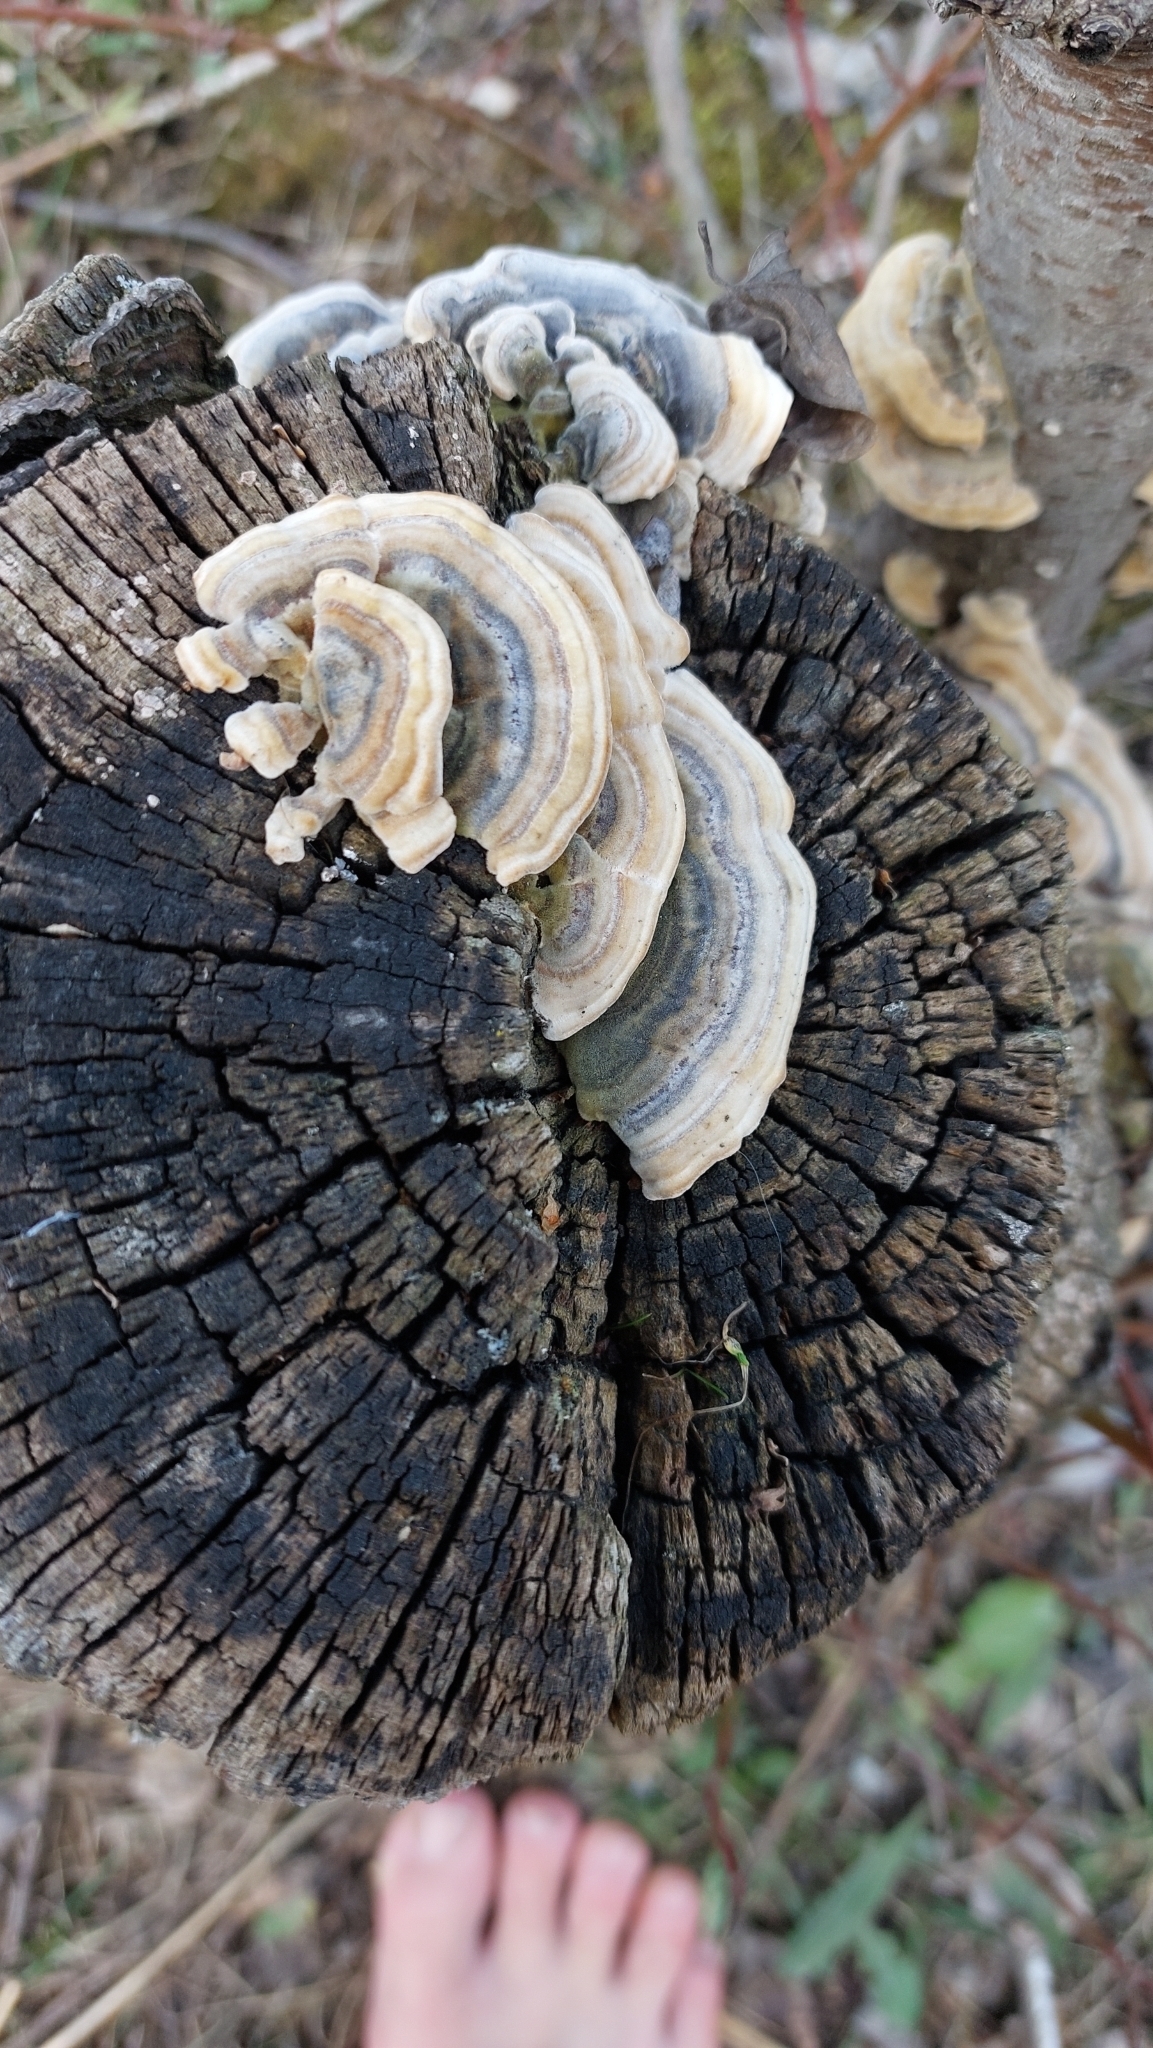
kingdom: Fungi
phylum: Basidiomycota
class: Agaricomycetes
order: Polyporales
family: Polyporaceae
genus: Trametes
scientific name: Trametes versicolor
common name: Turkeytail
